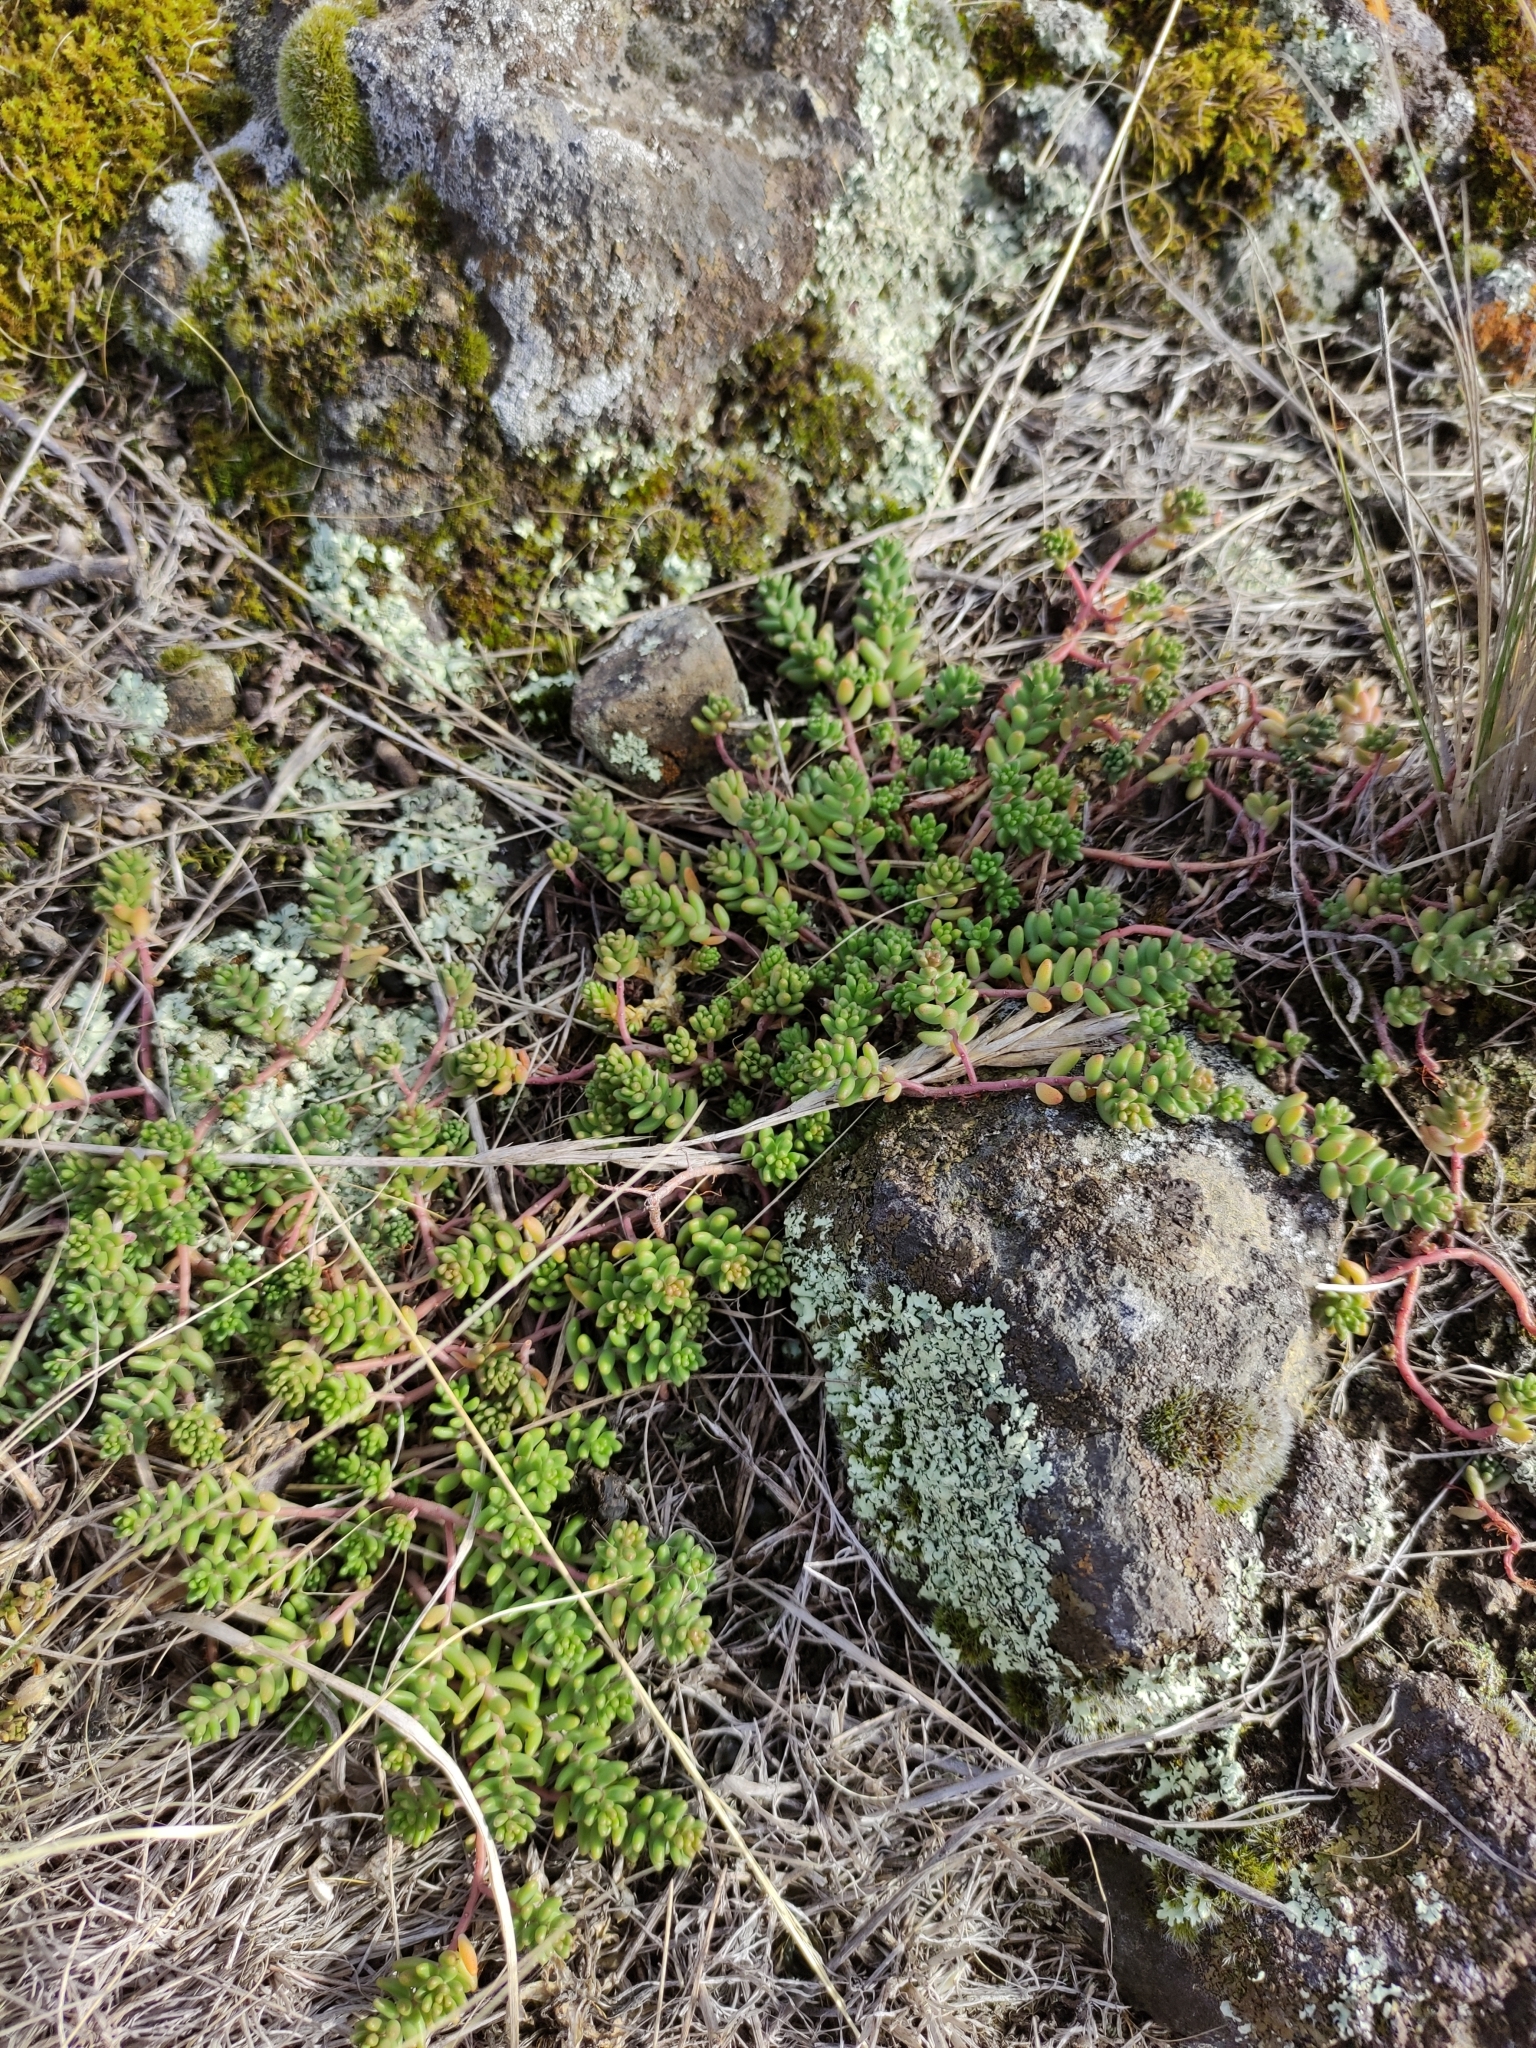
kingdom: Plantae
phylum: Tracheophyta
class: Magnoliopsida
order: Saxifragales
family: Crassulaceae
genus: Sedum
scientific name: Sedum album
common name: White stonecrop
